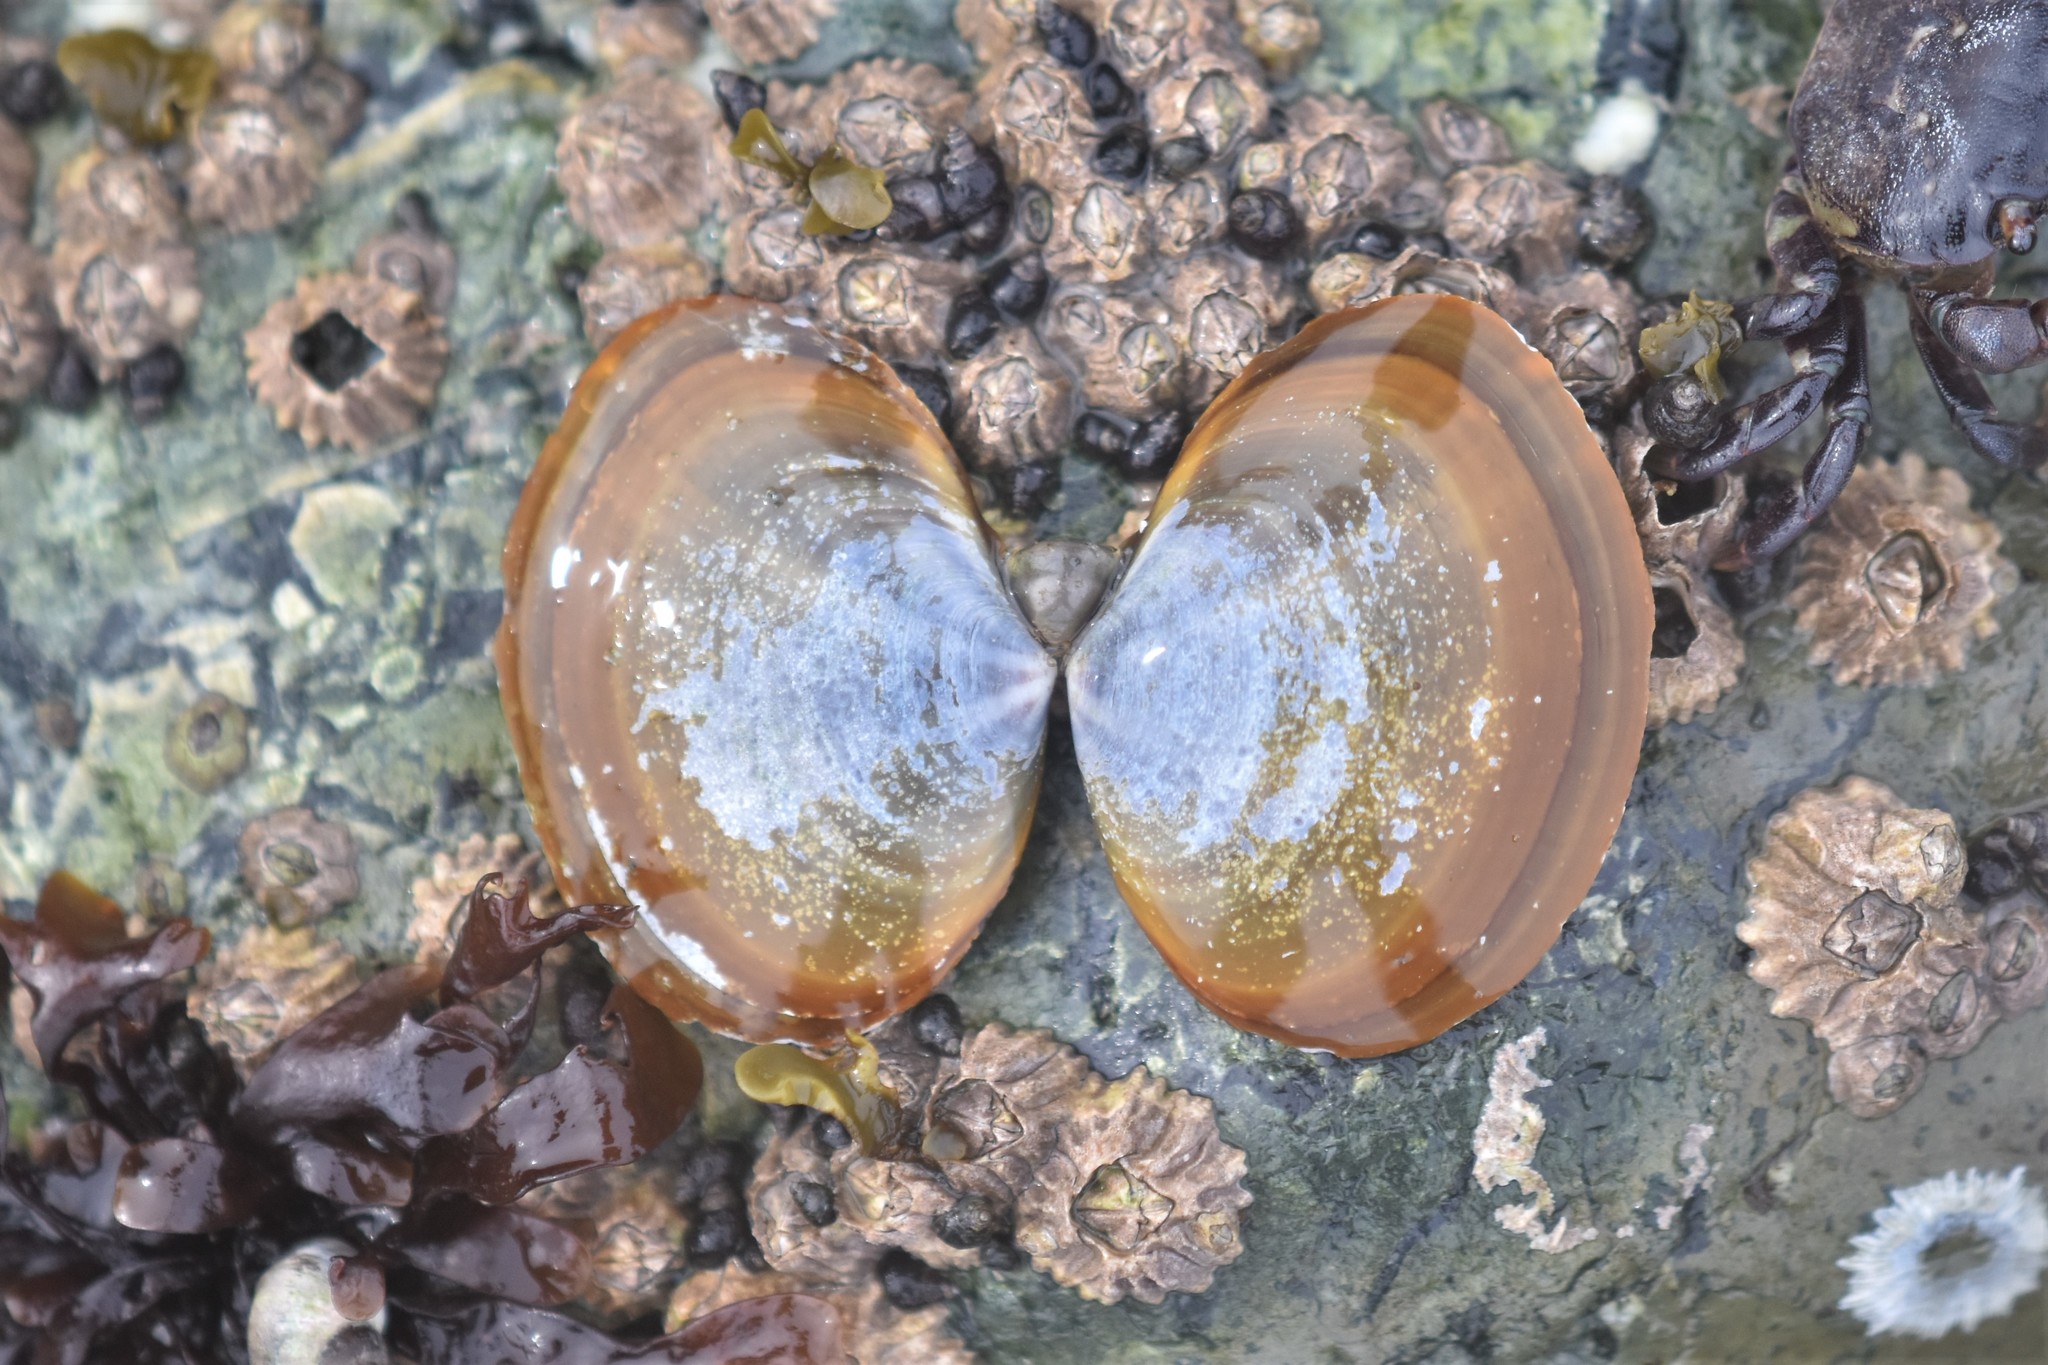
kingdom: Animalia
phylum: Mollusca
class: Bivalvia
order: Cardiida
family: Psammobiidae
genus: Nuttallia
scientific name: Nuttallia obscurata
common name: Purple mahogany-clam
